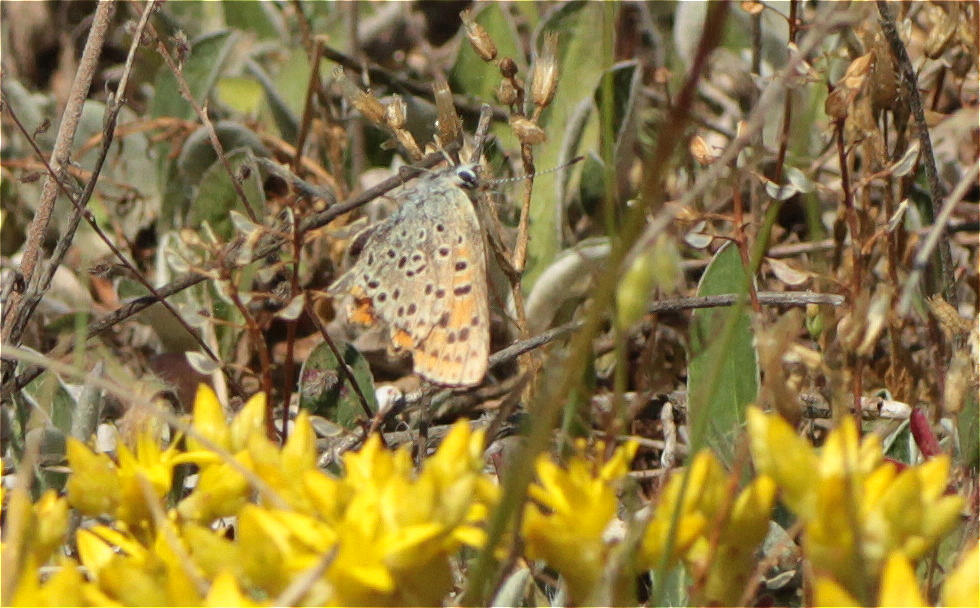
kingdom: Animalia
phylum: Arthropoda
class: Insecta
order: Lepidoptera
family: Lycaenidae
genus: Loweia
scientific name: Loweia tityrus
